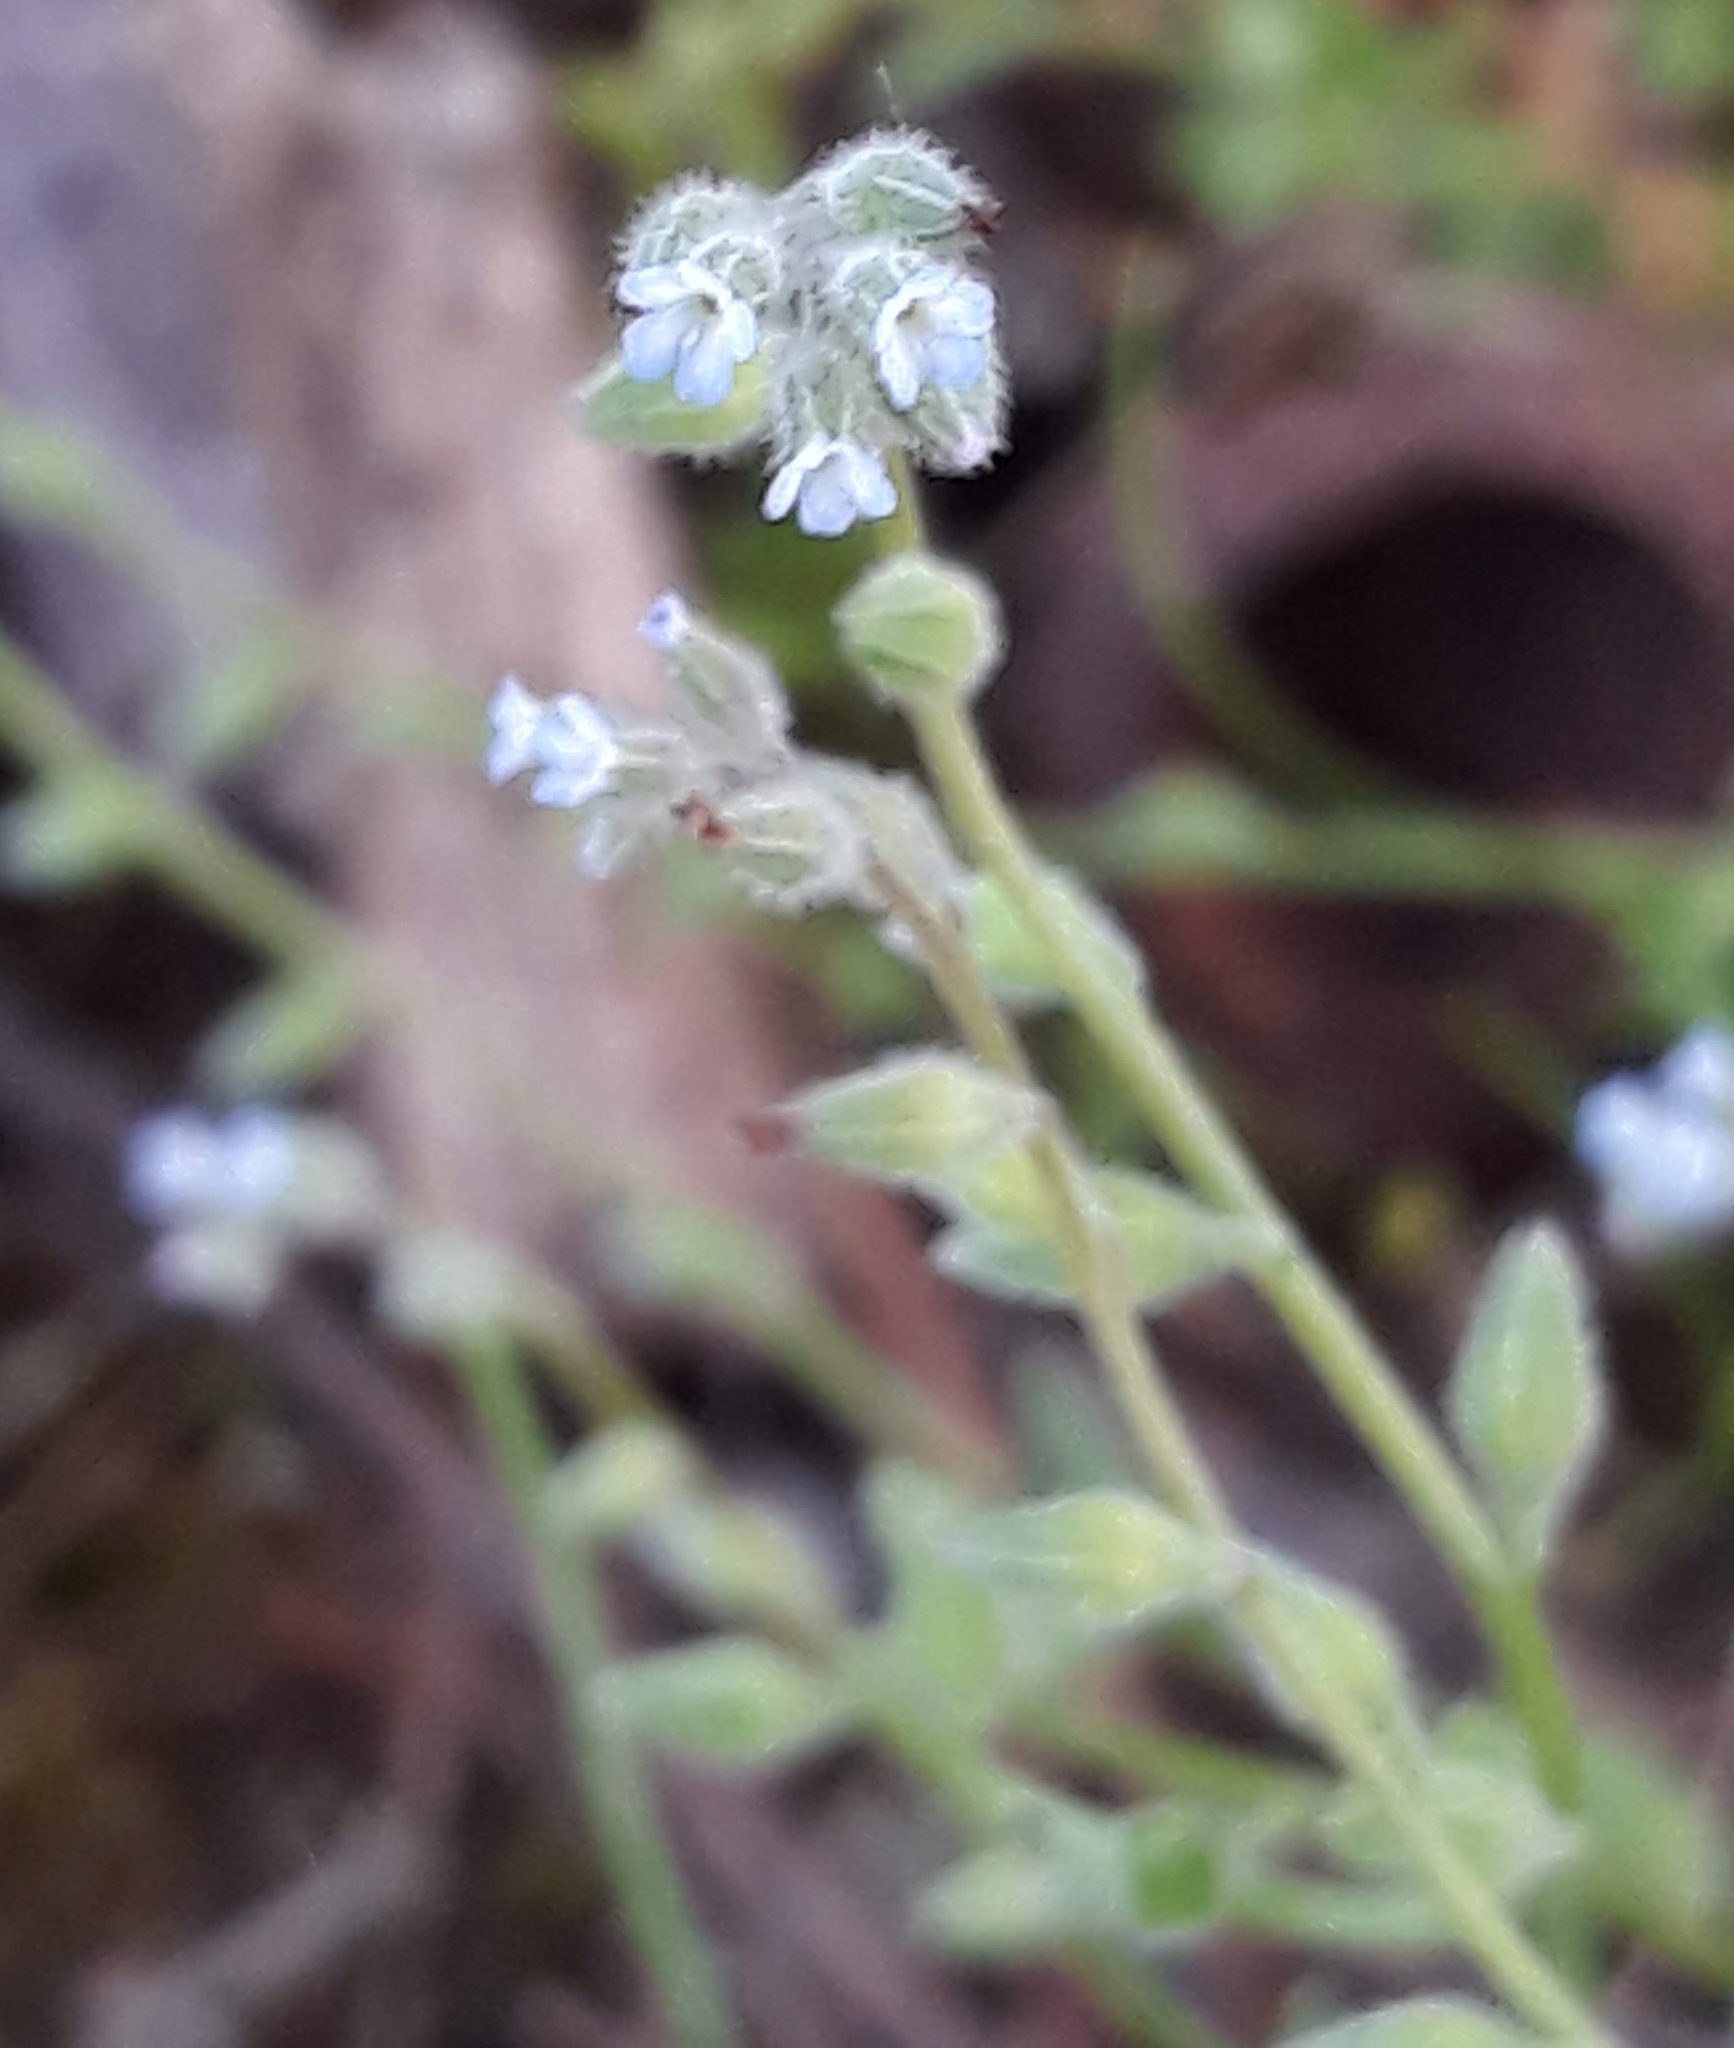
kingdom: Plantae
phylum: Tracheophyta
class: Magnoliopsida
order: Boraginales
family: Boraginaceae
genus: Myosotis
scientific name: Myosotis stricta
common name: Strict forget-me-not
